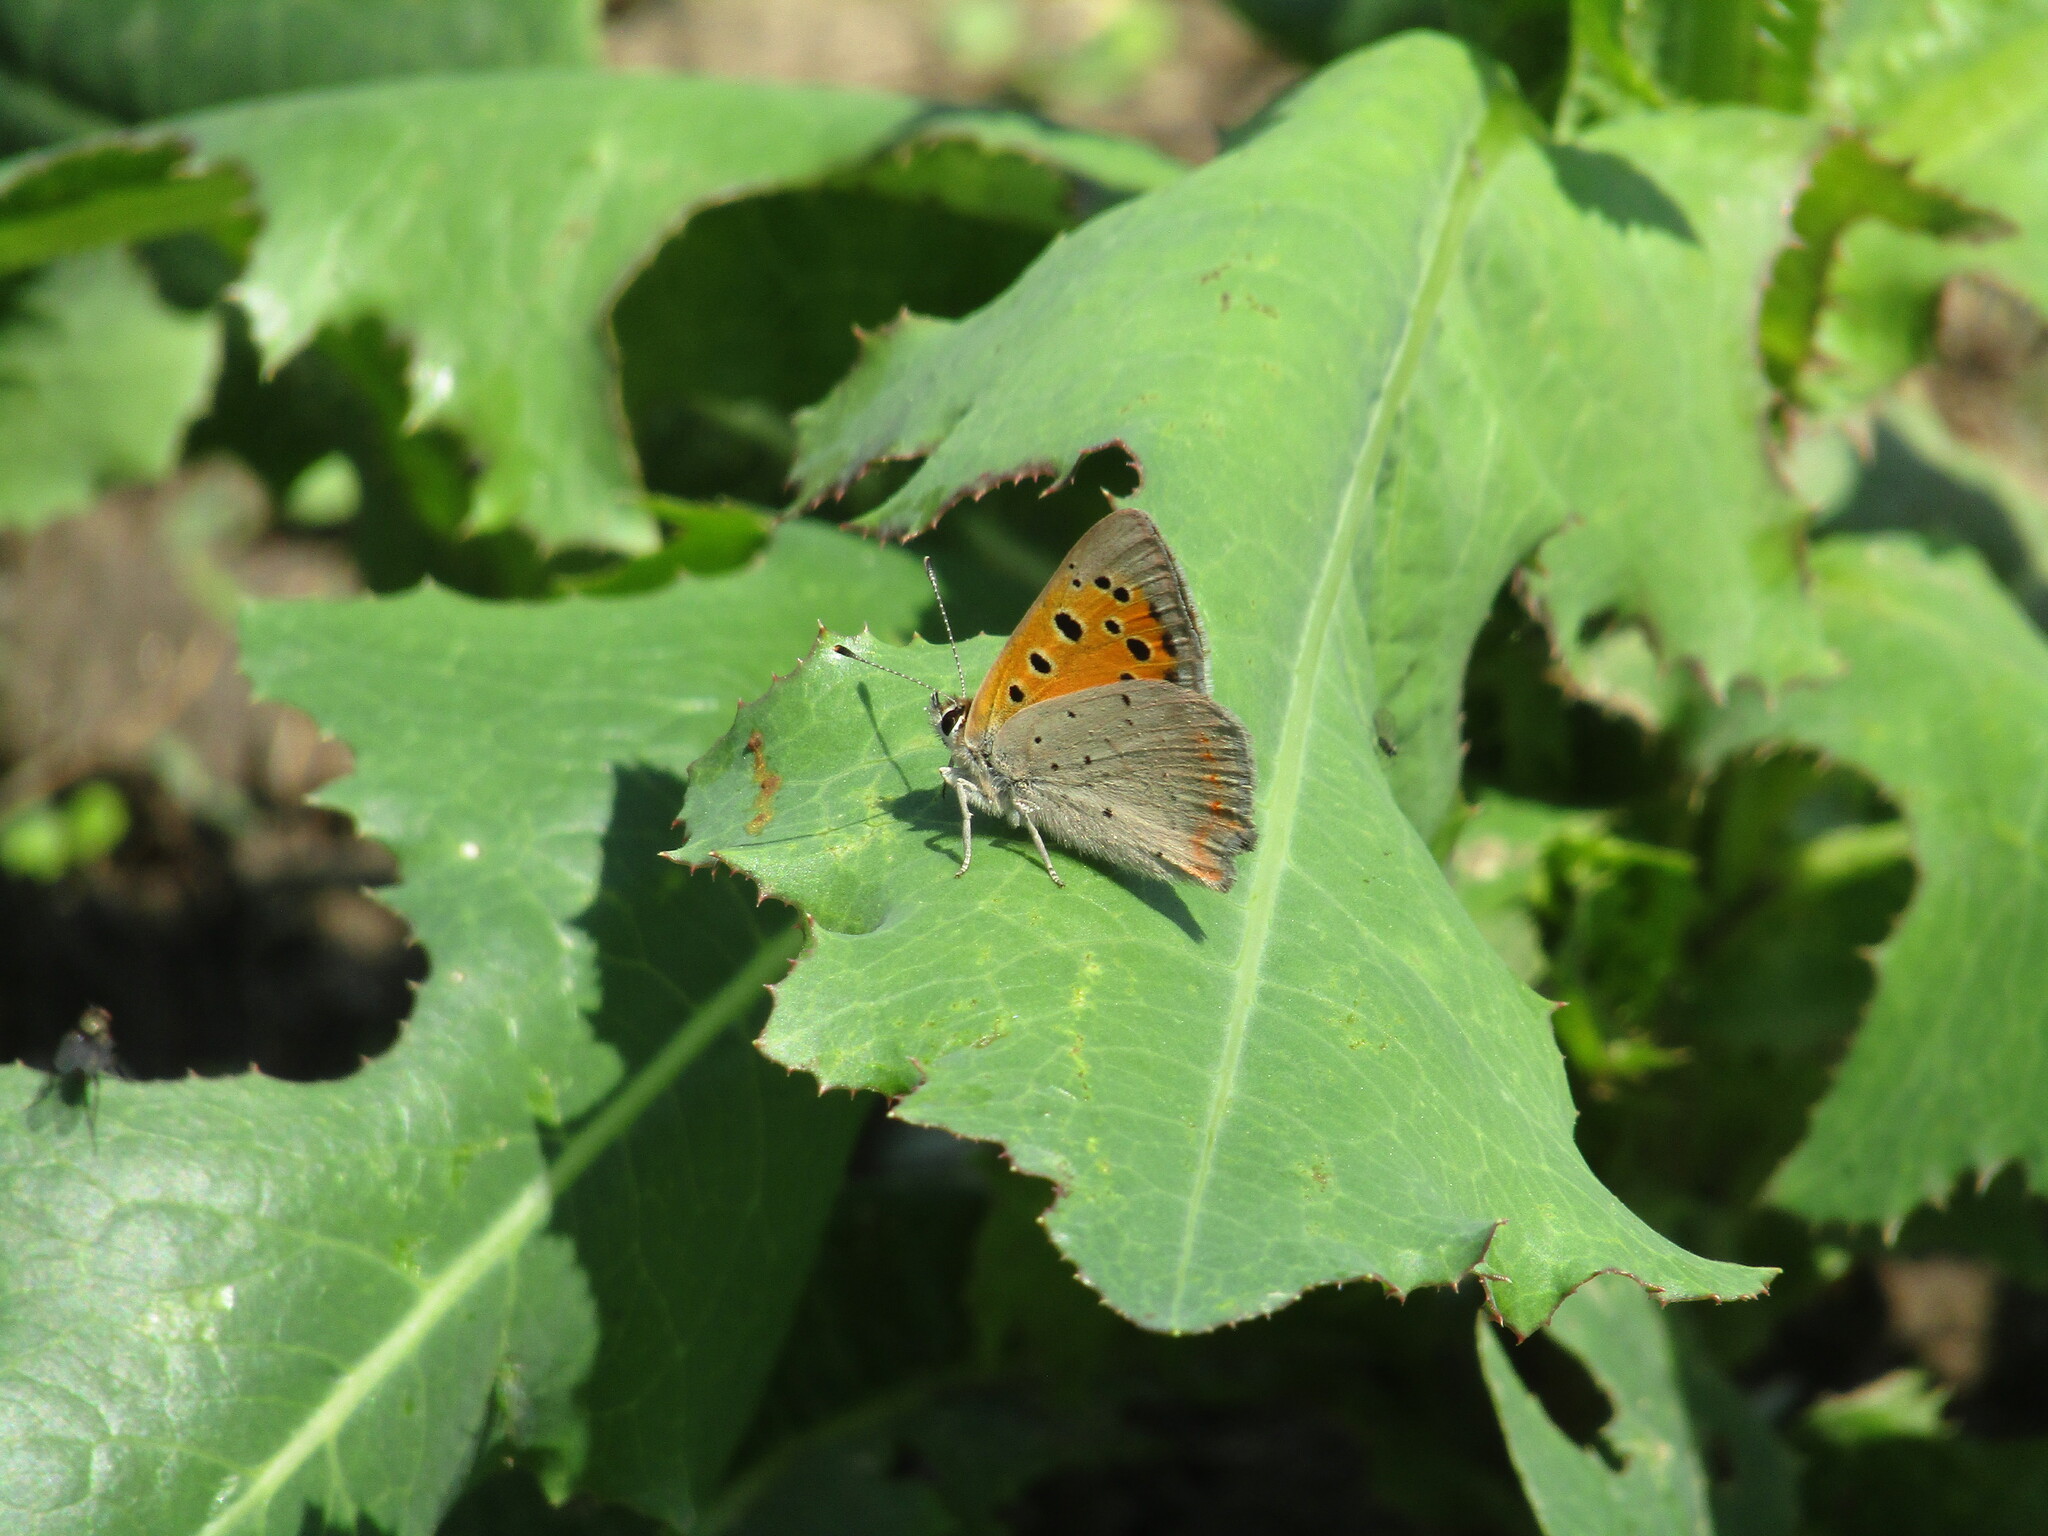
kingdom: Animalia
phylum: Arthropoda
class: Insecta
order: Lepidoptera
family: Lycaenidae
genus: Lycaena
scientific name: Lycaena phlaeas
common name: Small copper
